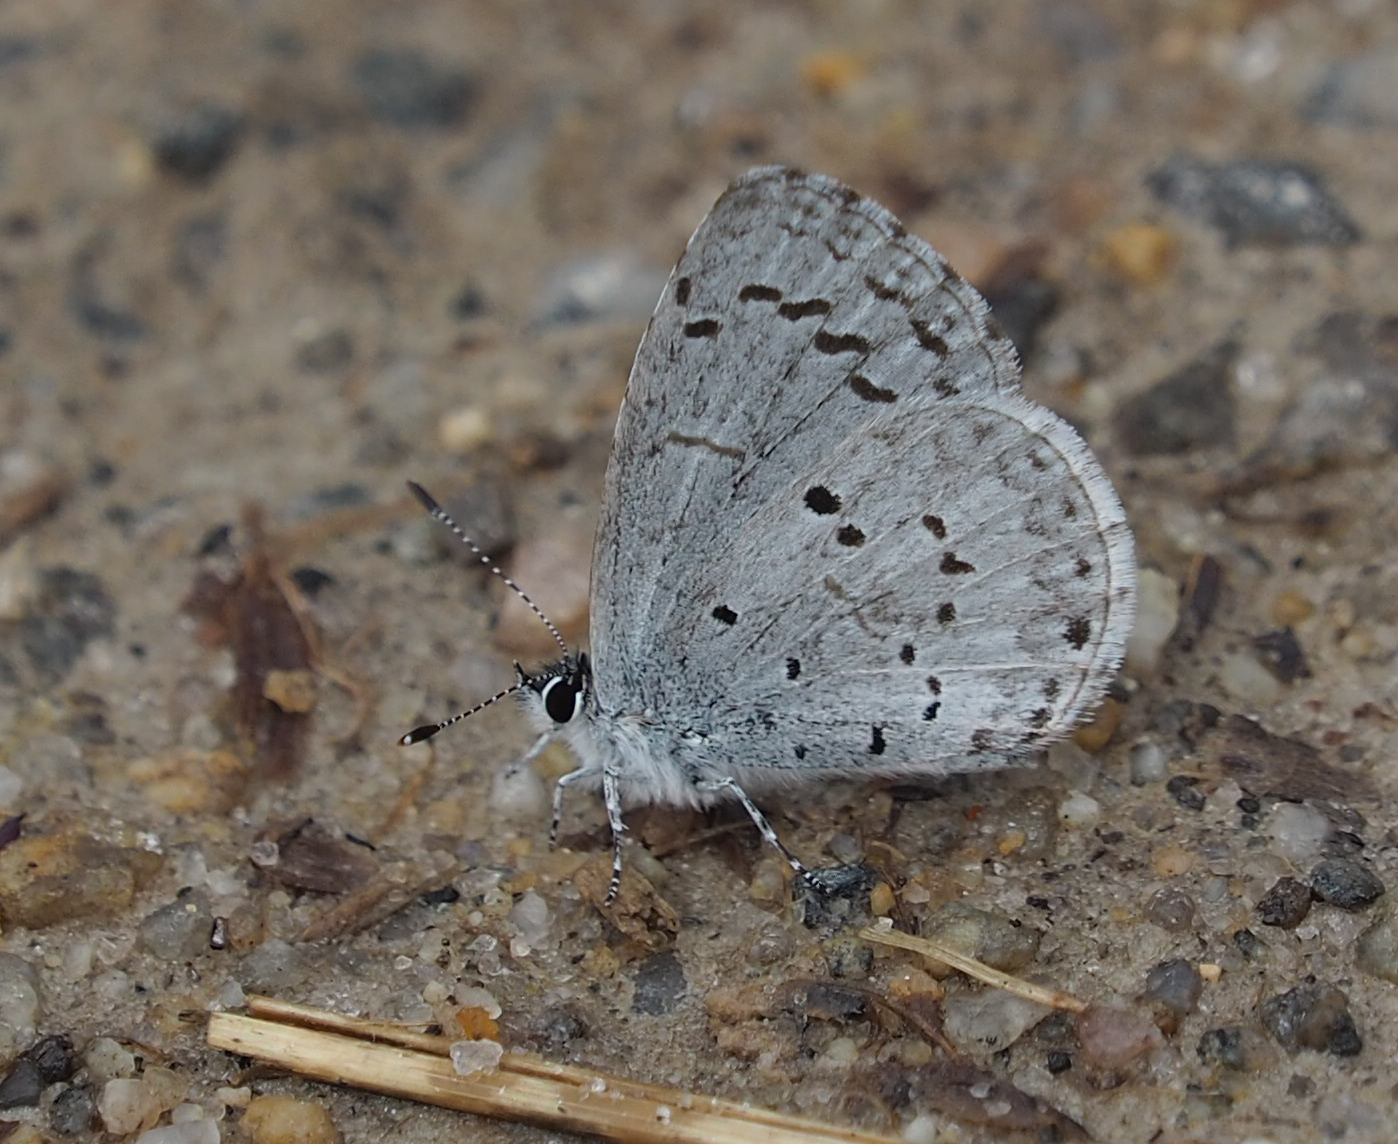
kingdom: Animalia
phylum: Arthropoda
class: Insecta
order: Lepidoptera
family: Lycaenidae
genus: Celastrina
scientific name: Celastrina ladon
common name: Spring azure
